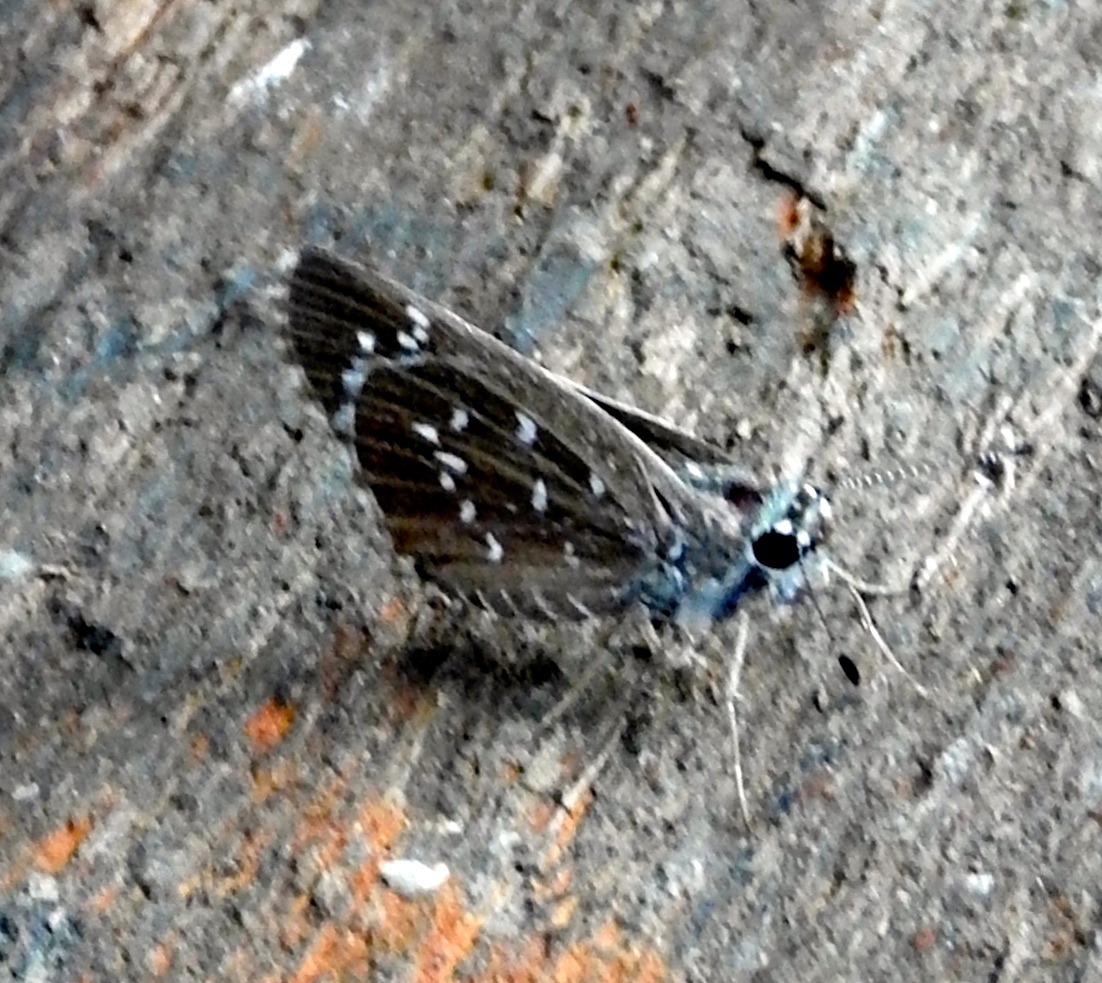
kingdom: Animalia
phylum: Arthropoda
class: Insecta
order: Lepidoptera
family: Hesperiidae
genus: Amblyscirtes
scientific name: Amblyscirtes
